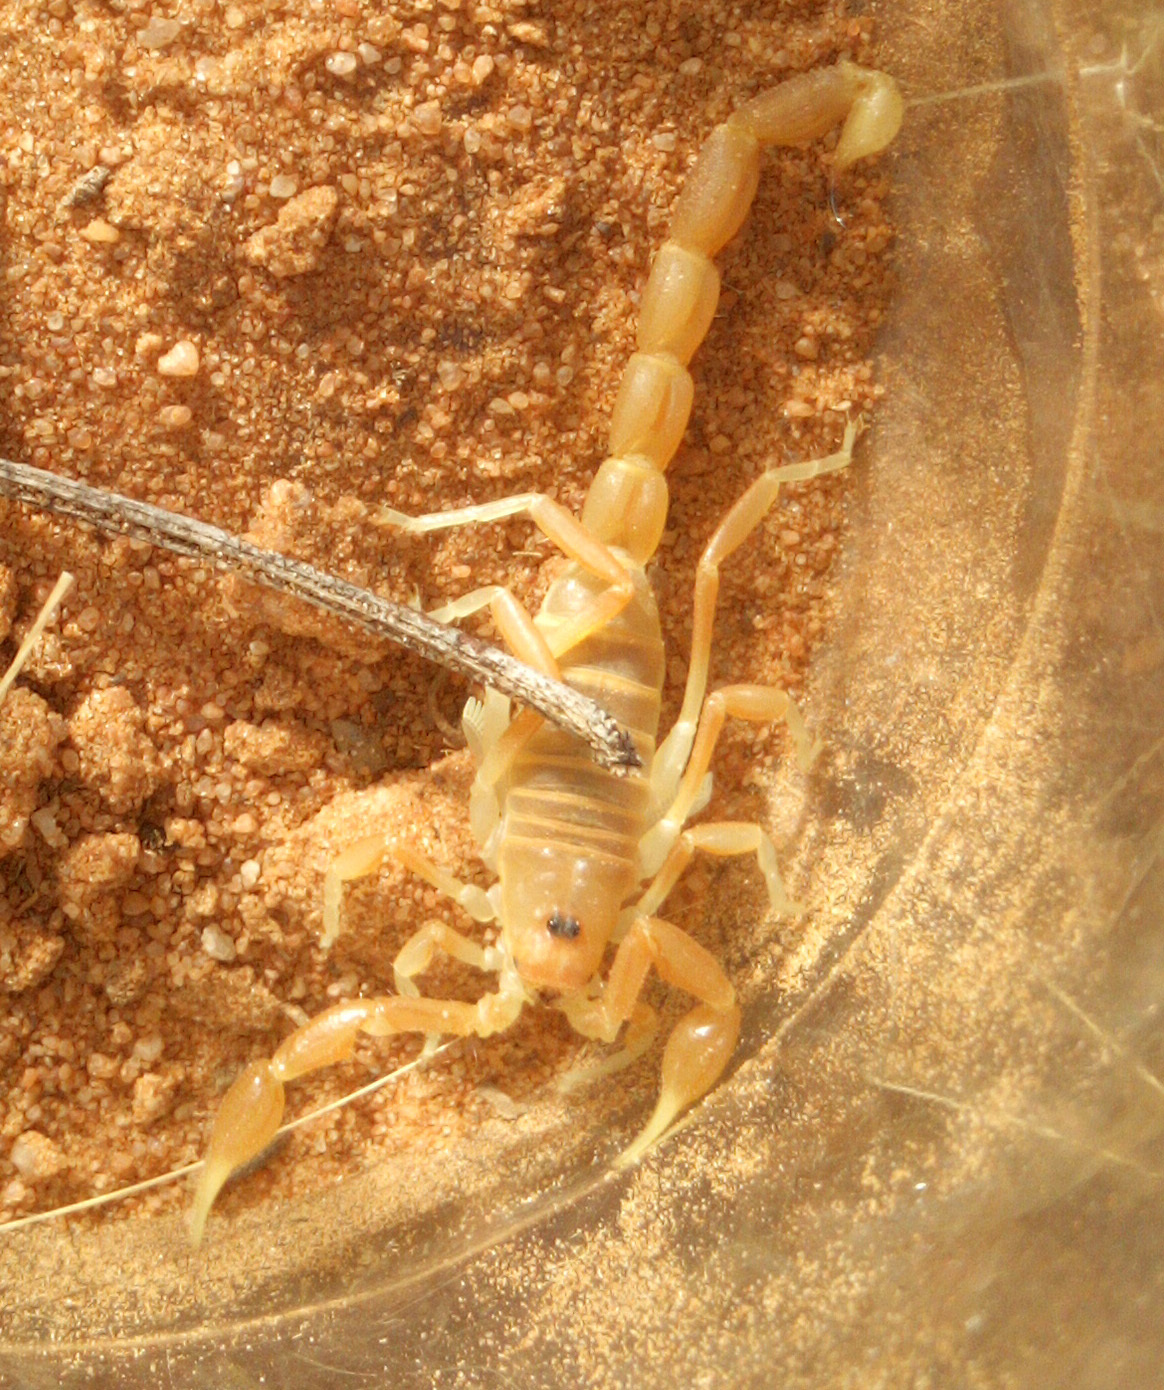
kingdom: Animalia
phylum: Arthropoda
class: Arachnida
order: Scorpiones
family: Buthidae
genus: Parabuthus
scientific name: Parabuthus kuanyamarum
